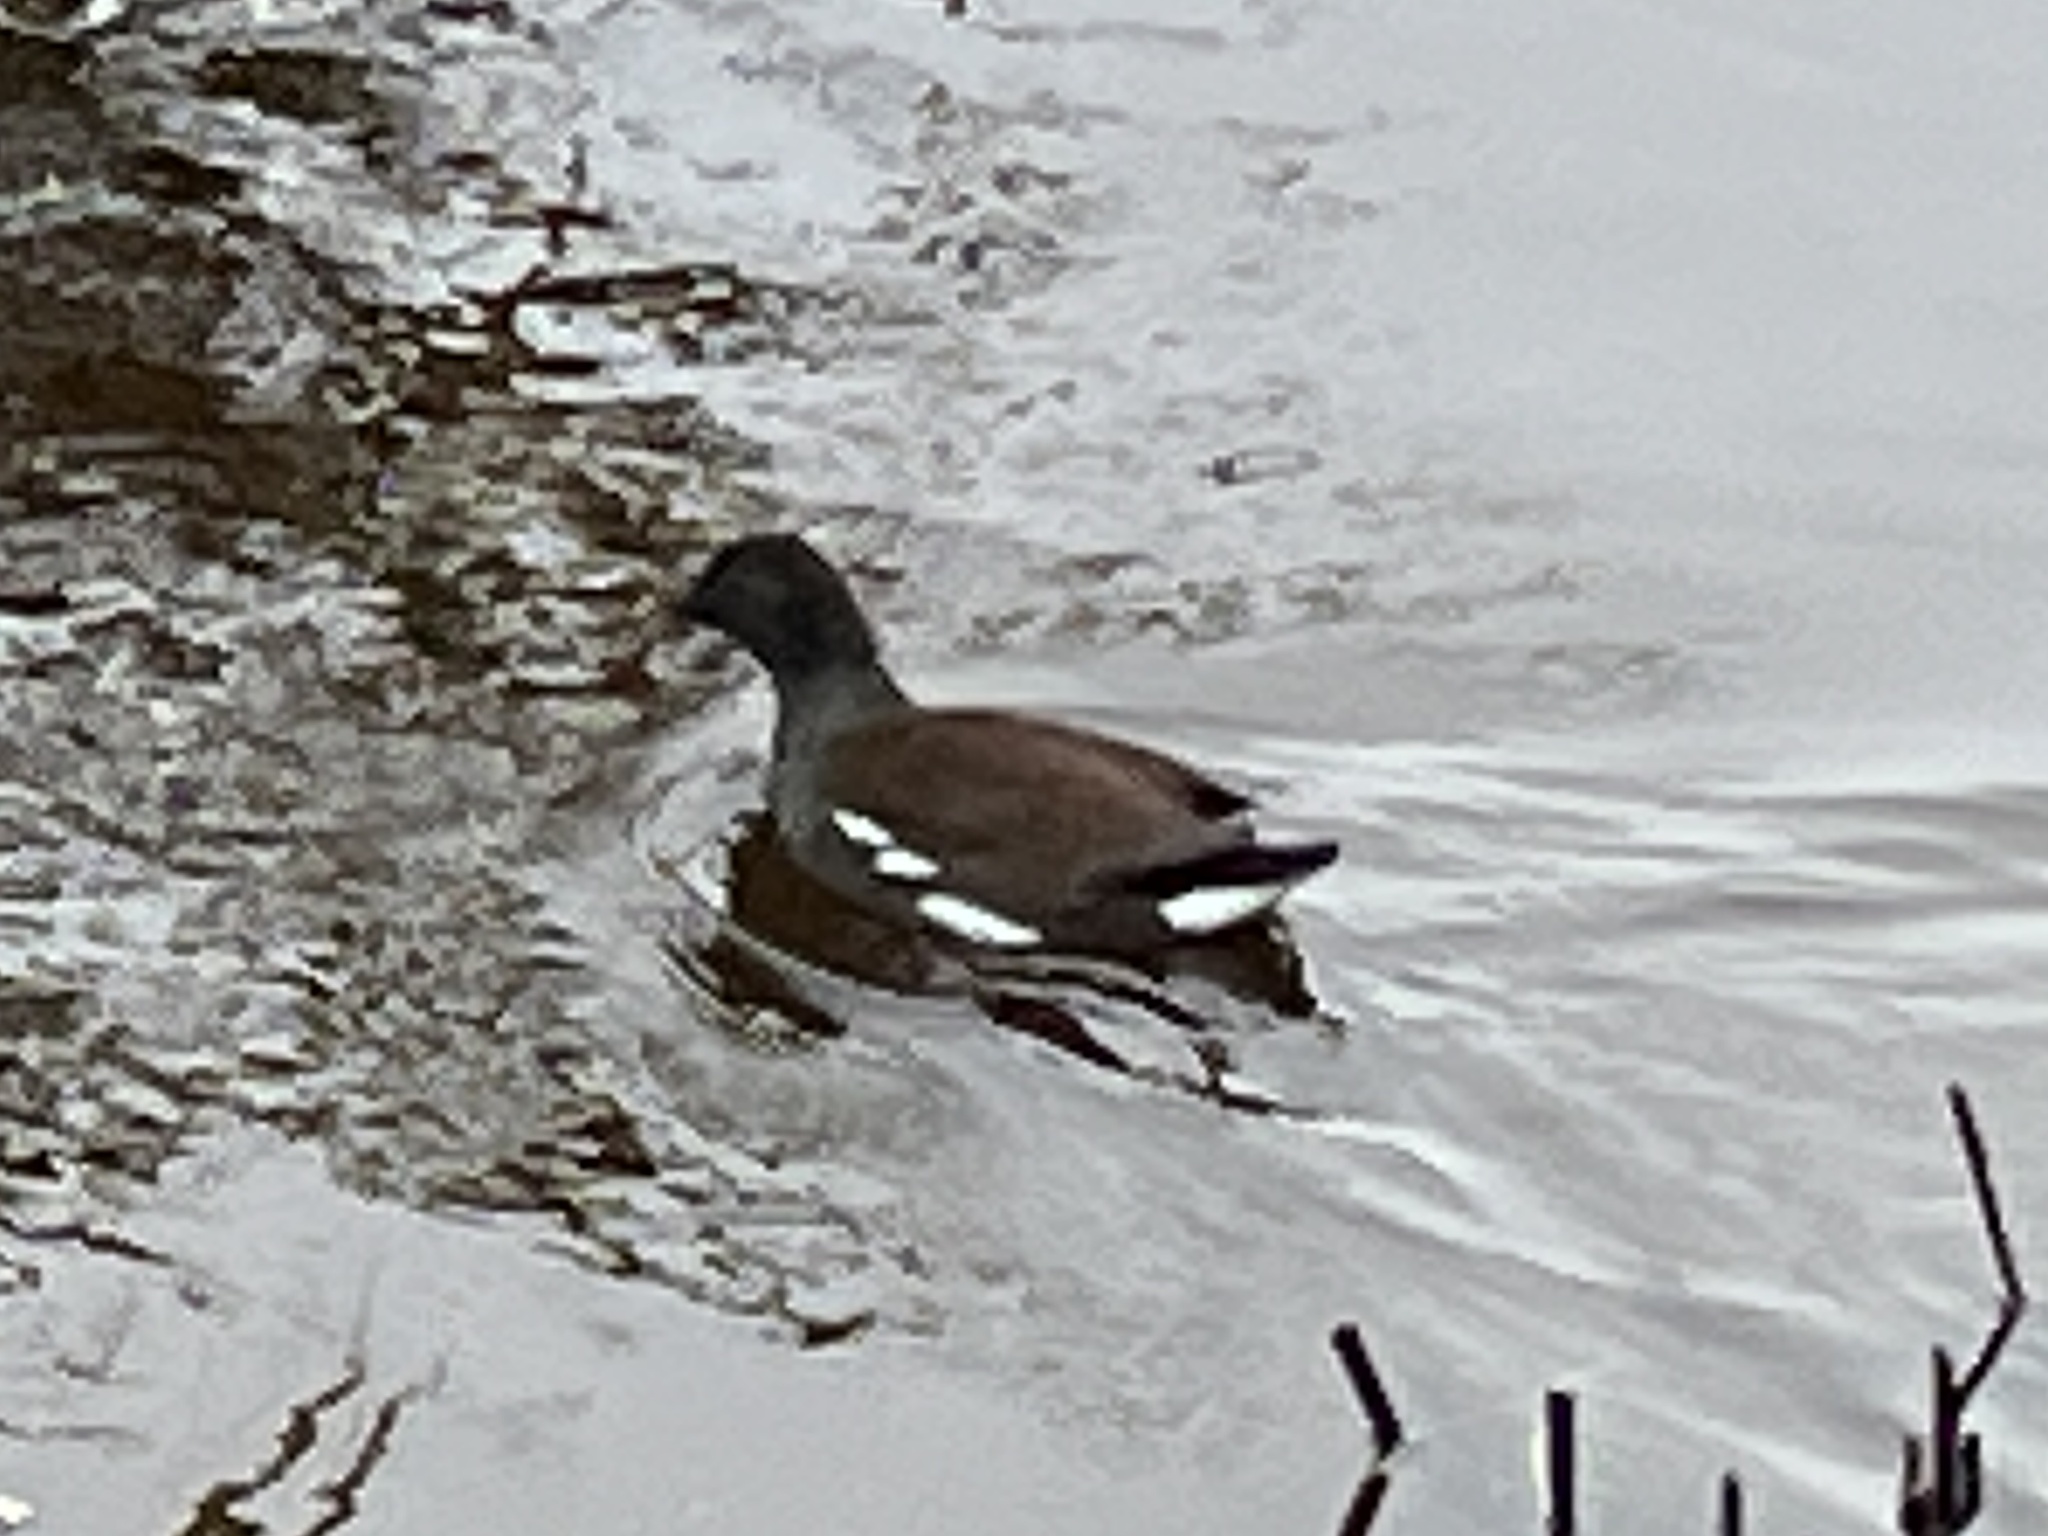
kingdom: Animalia
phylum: Chordata
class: Aves
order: Gruiformes
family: Rallidae
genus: Gallinula
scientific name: Gallinula chloropus
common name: Common moorhen
